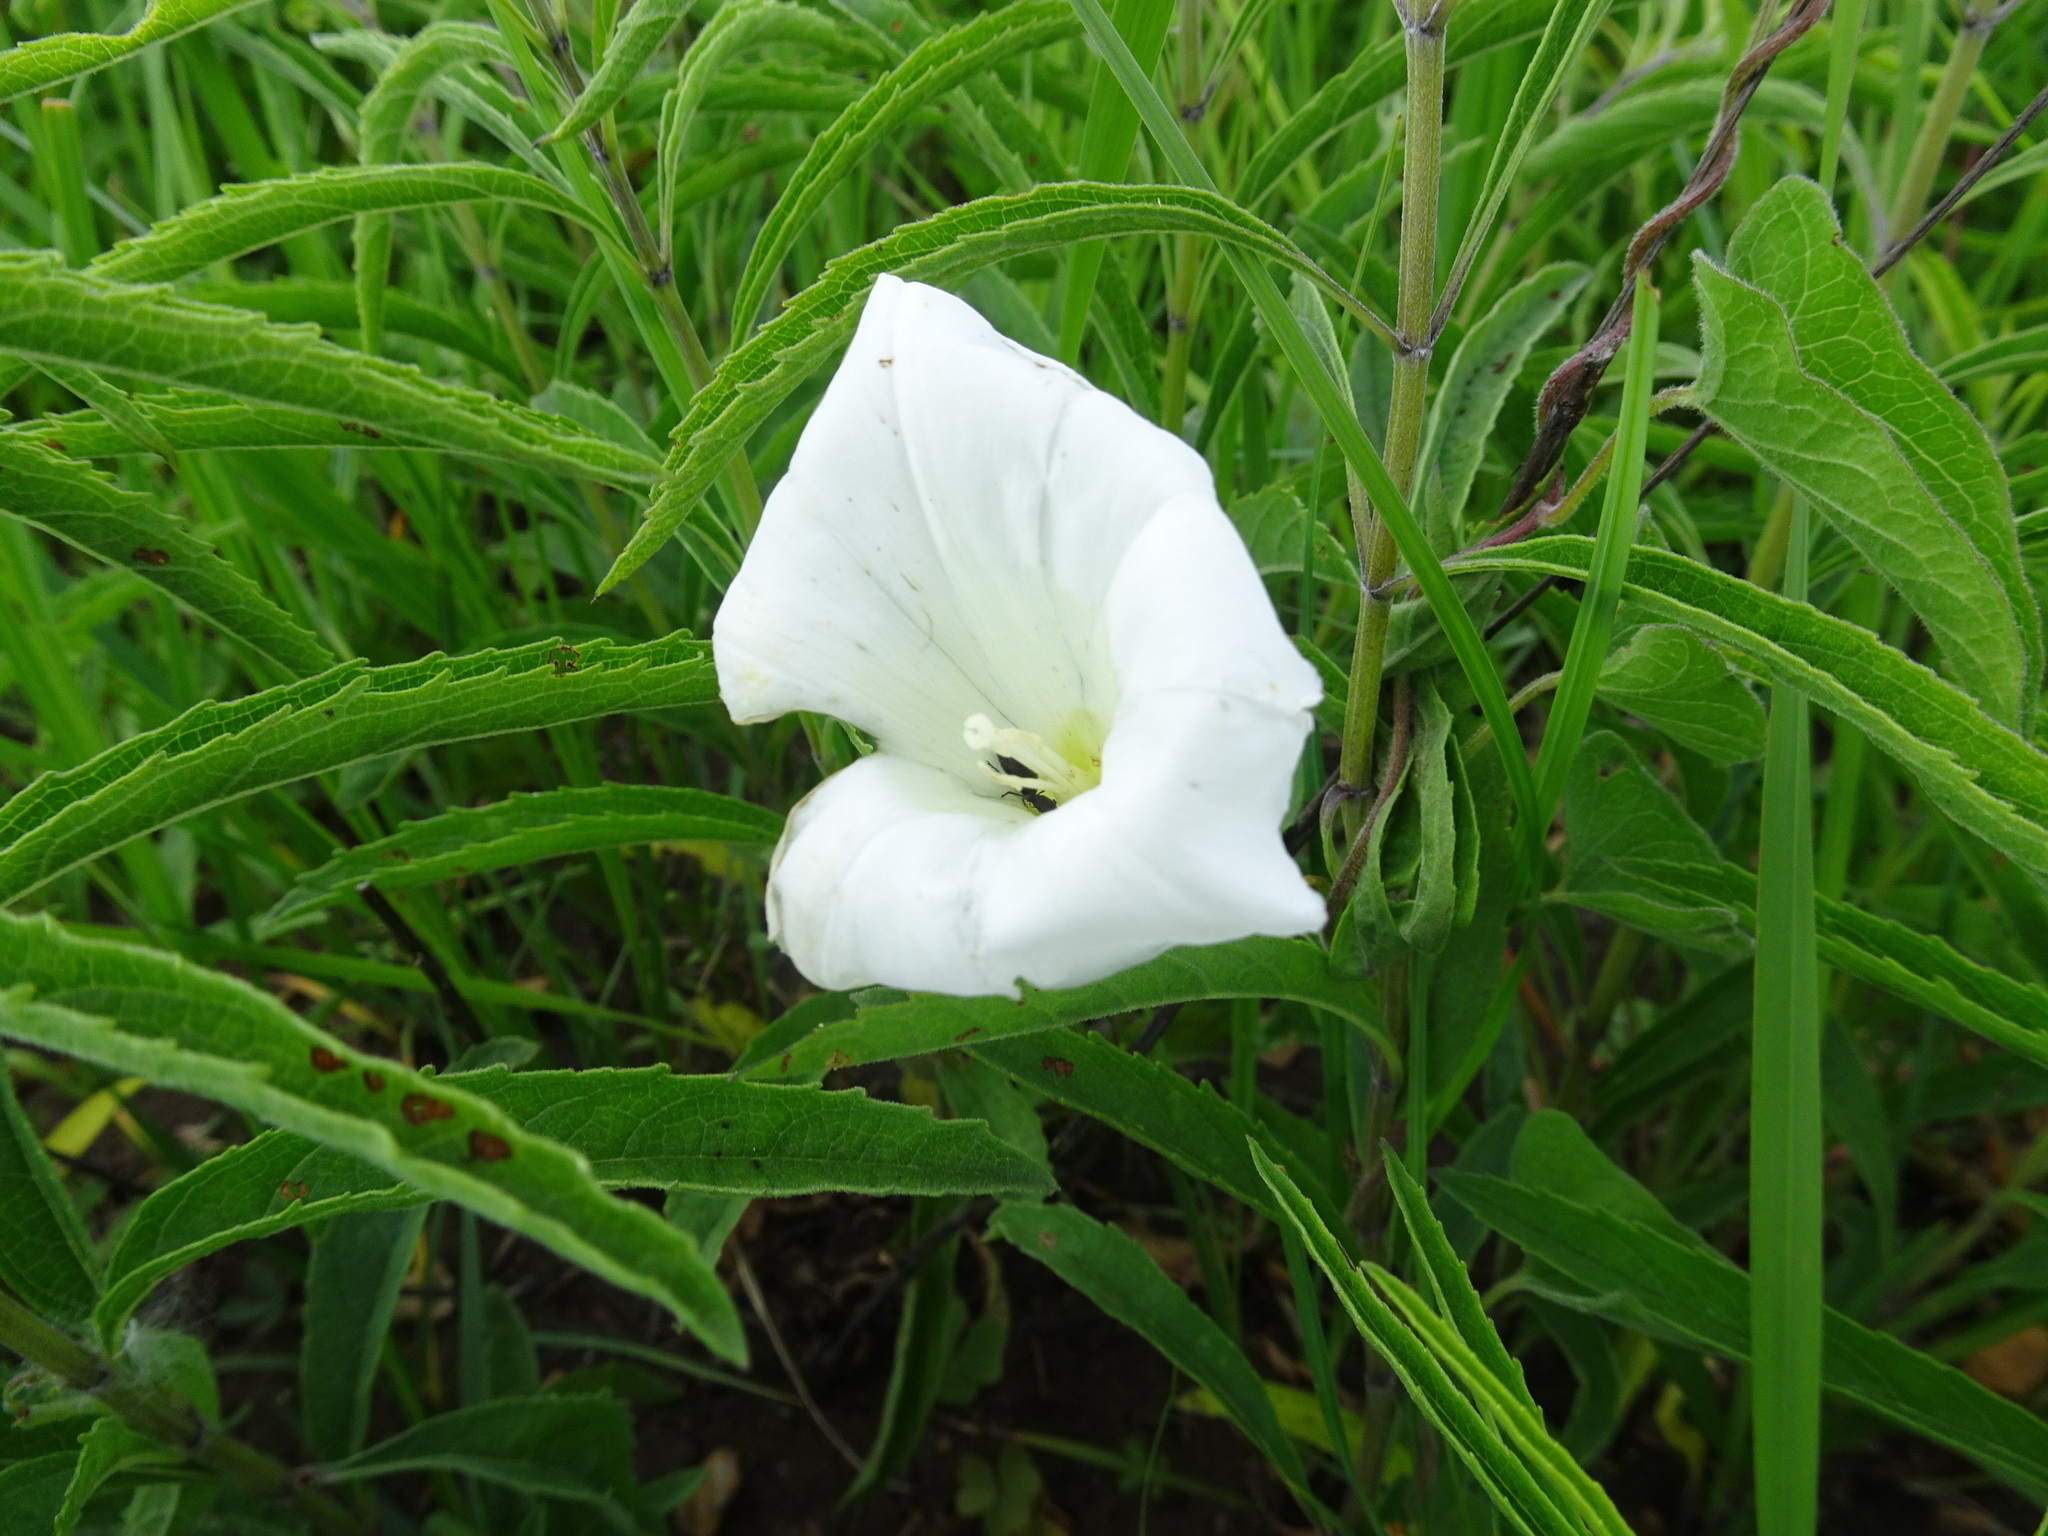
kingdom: Plantae
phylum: Tracheophyta
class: Magnoliopsida
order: Solanales
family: Convolvulaceae
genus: Calystegia
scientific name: Calystegia macounii
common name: Macoun's bindweed
